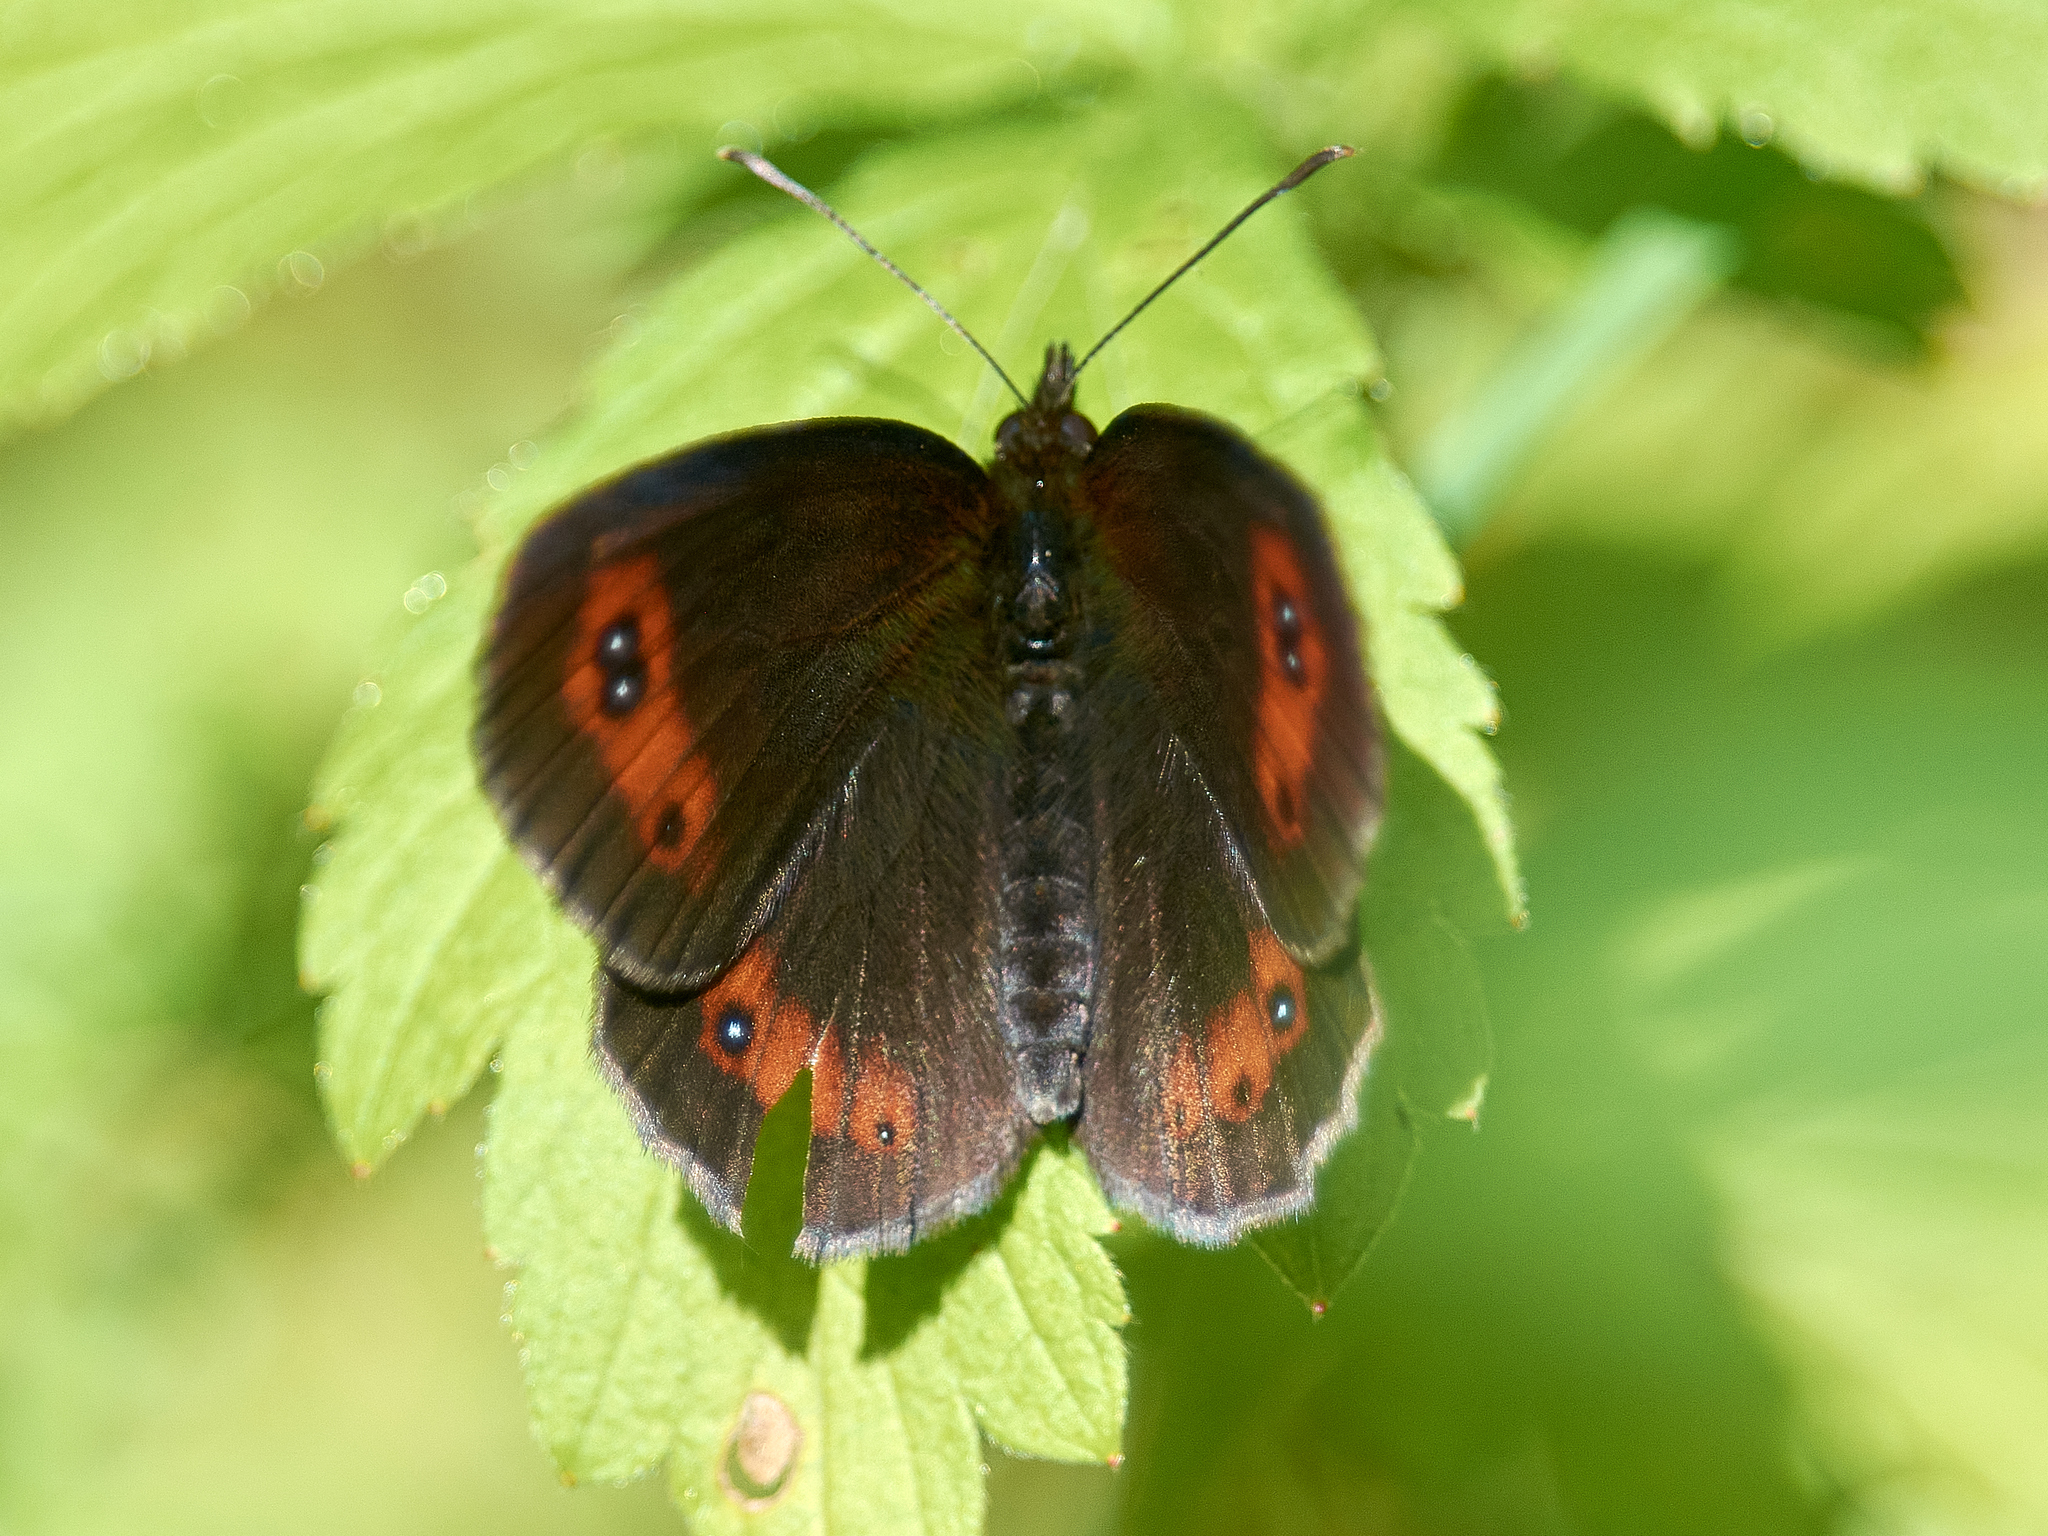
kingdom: Animalia
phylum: Arthropoda
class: Insecta
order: Lepidoptera
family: Nymphalidae
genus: Erebia
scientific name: Erebia aethiops
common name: Scotch argus
